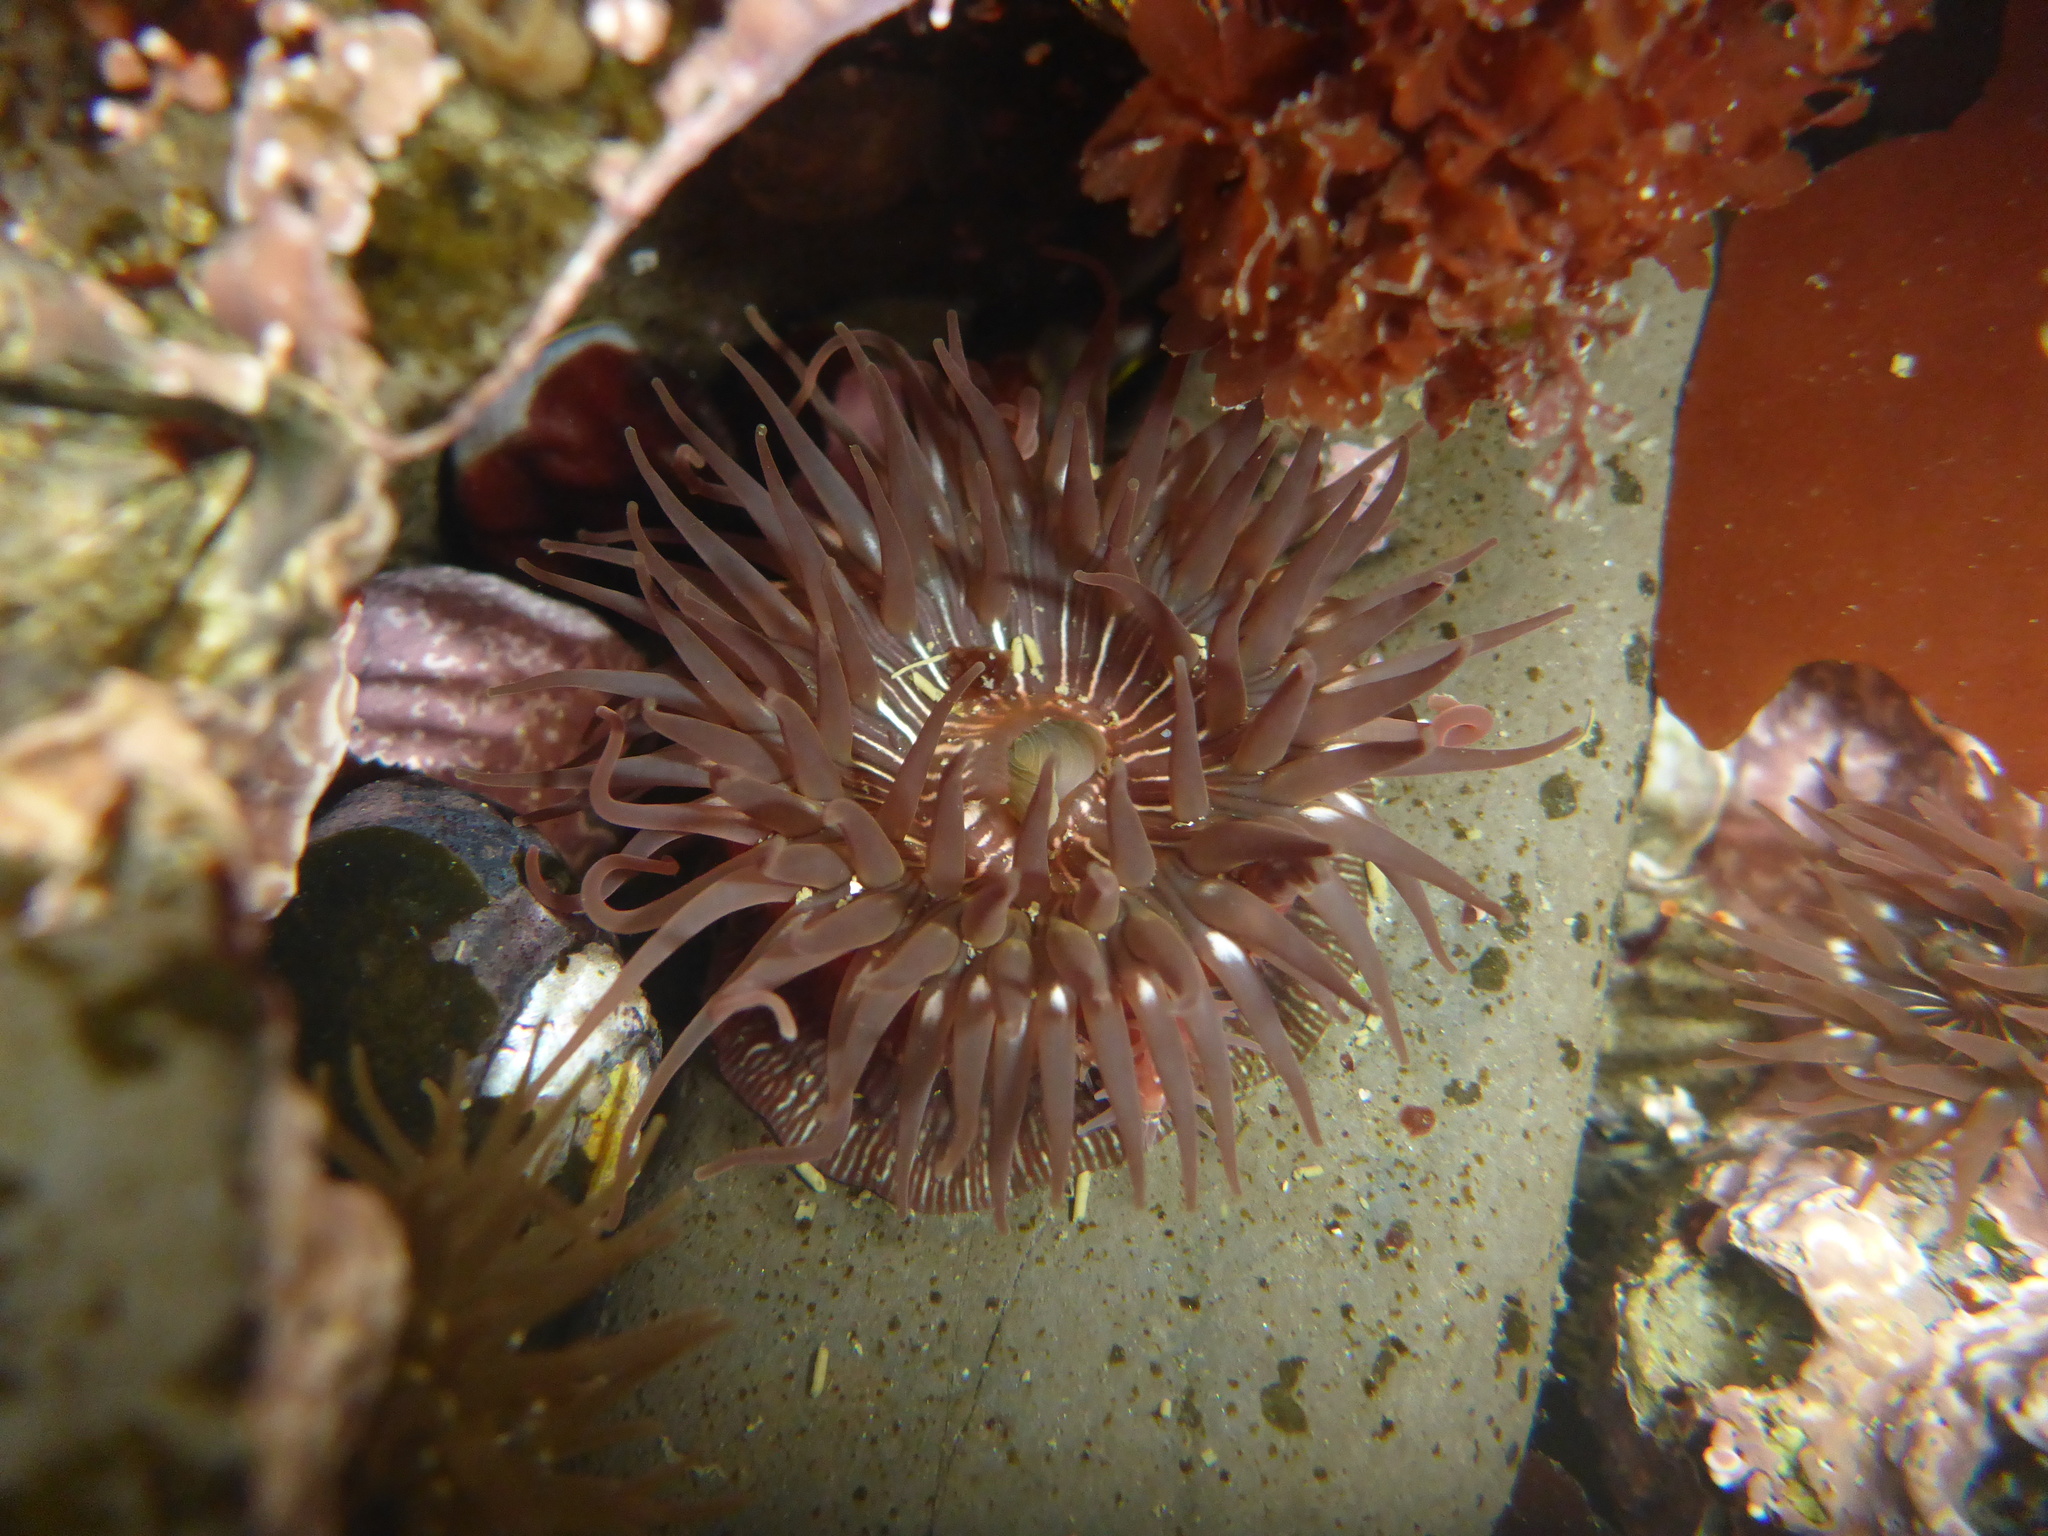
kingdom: Animalia
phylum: Cnidaria
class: Anthozoa
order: Actiniaria
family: Actiniidae
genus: Epiactis
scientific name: Epiactis prolifera
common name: Brooding anemone
